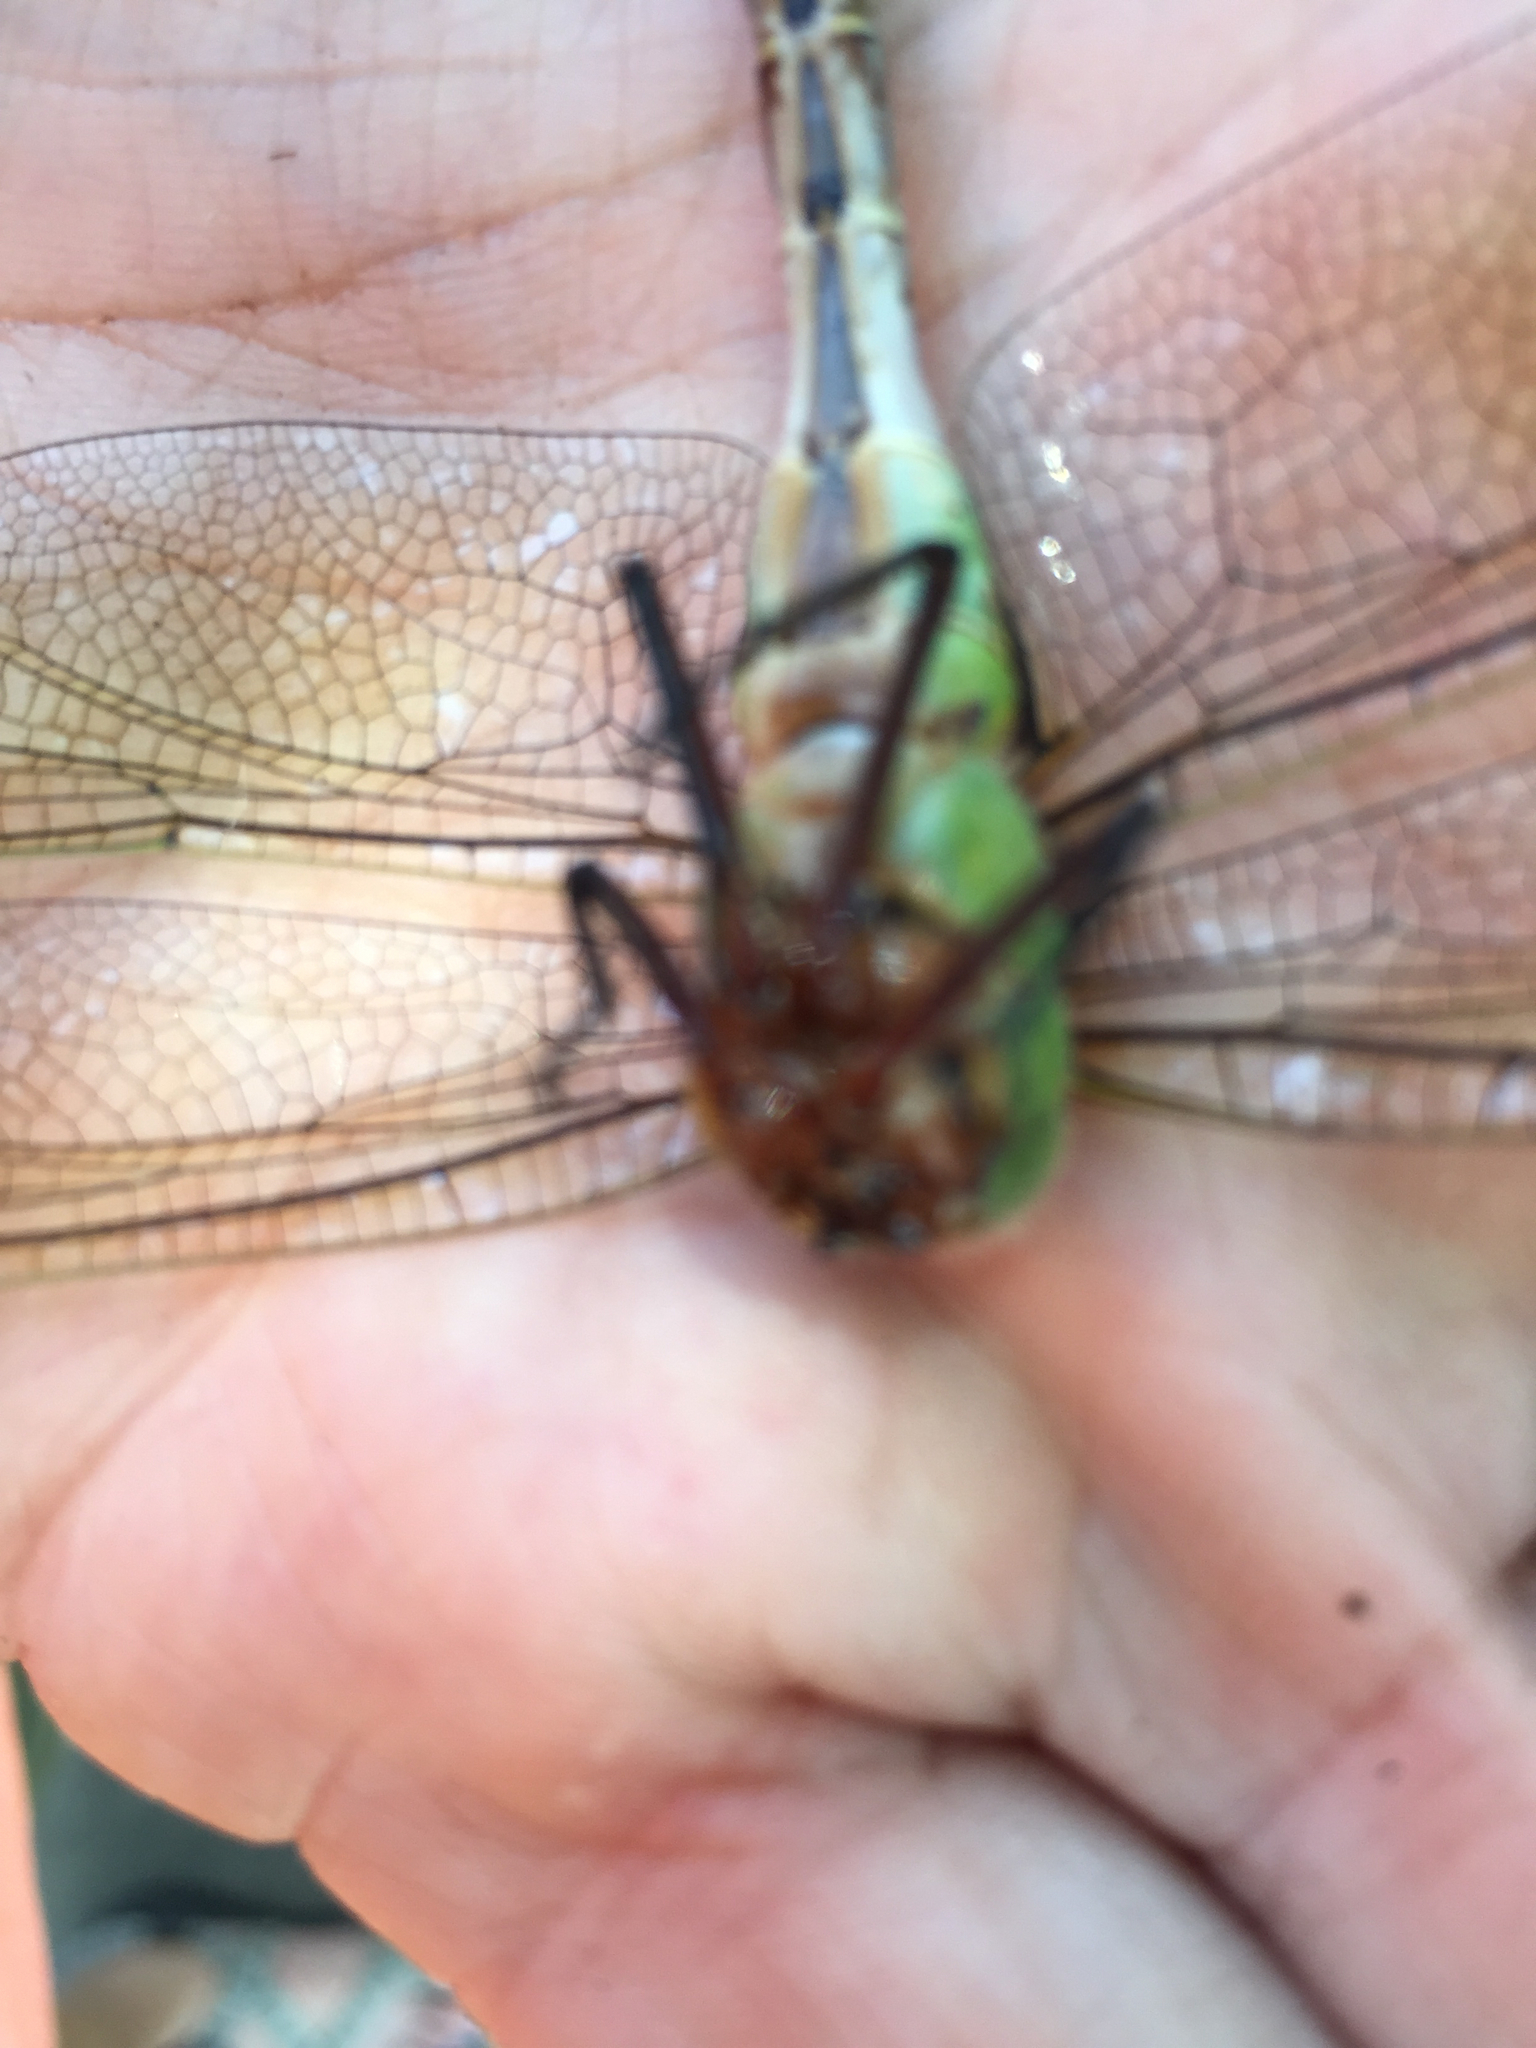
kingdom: Animalia
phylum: Arthropoda
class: Insecta
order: Odonata
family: Aeshnidae
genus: Anax
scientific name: Anax junius
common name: Common green darner
